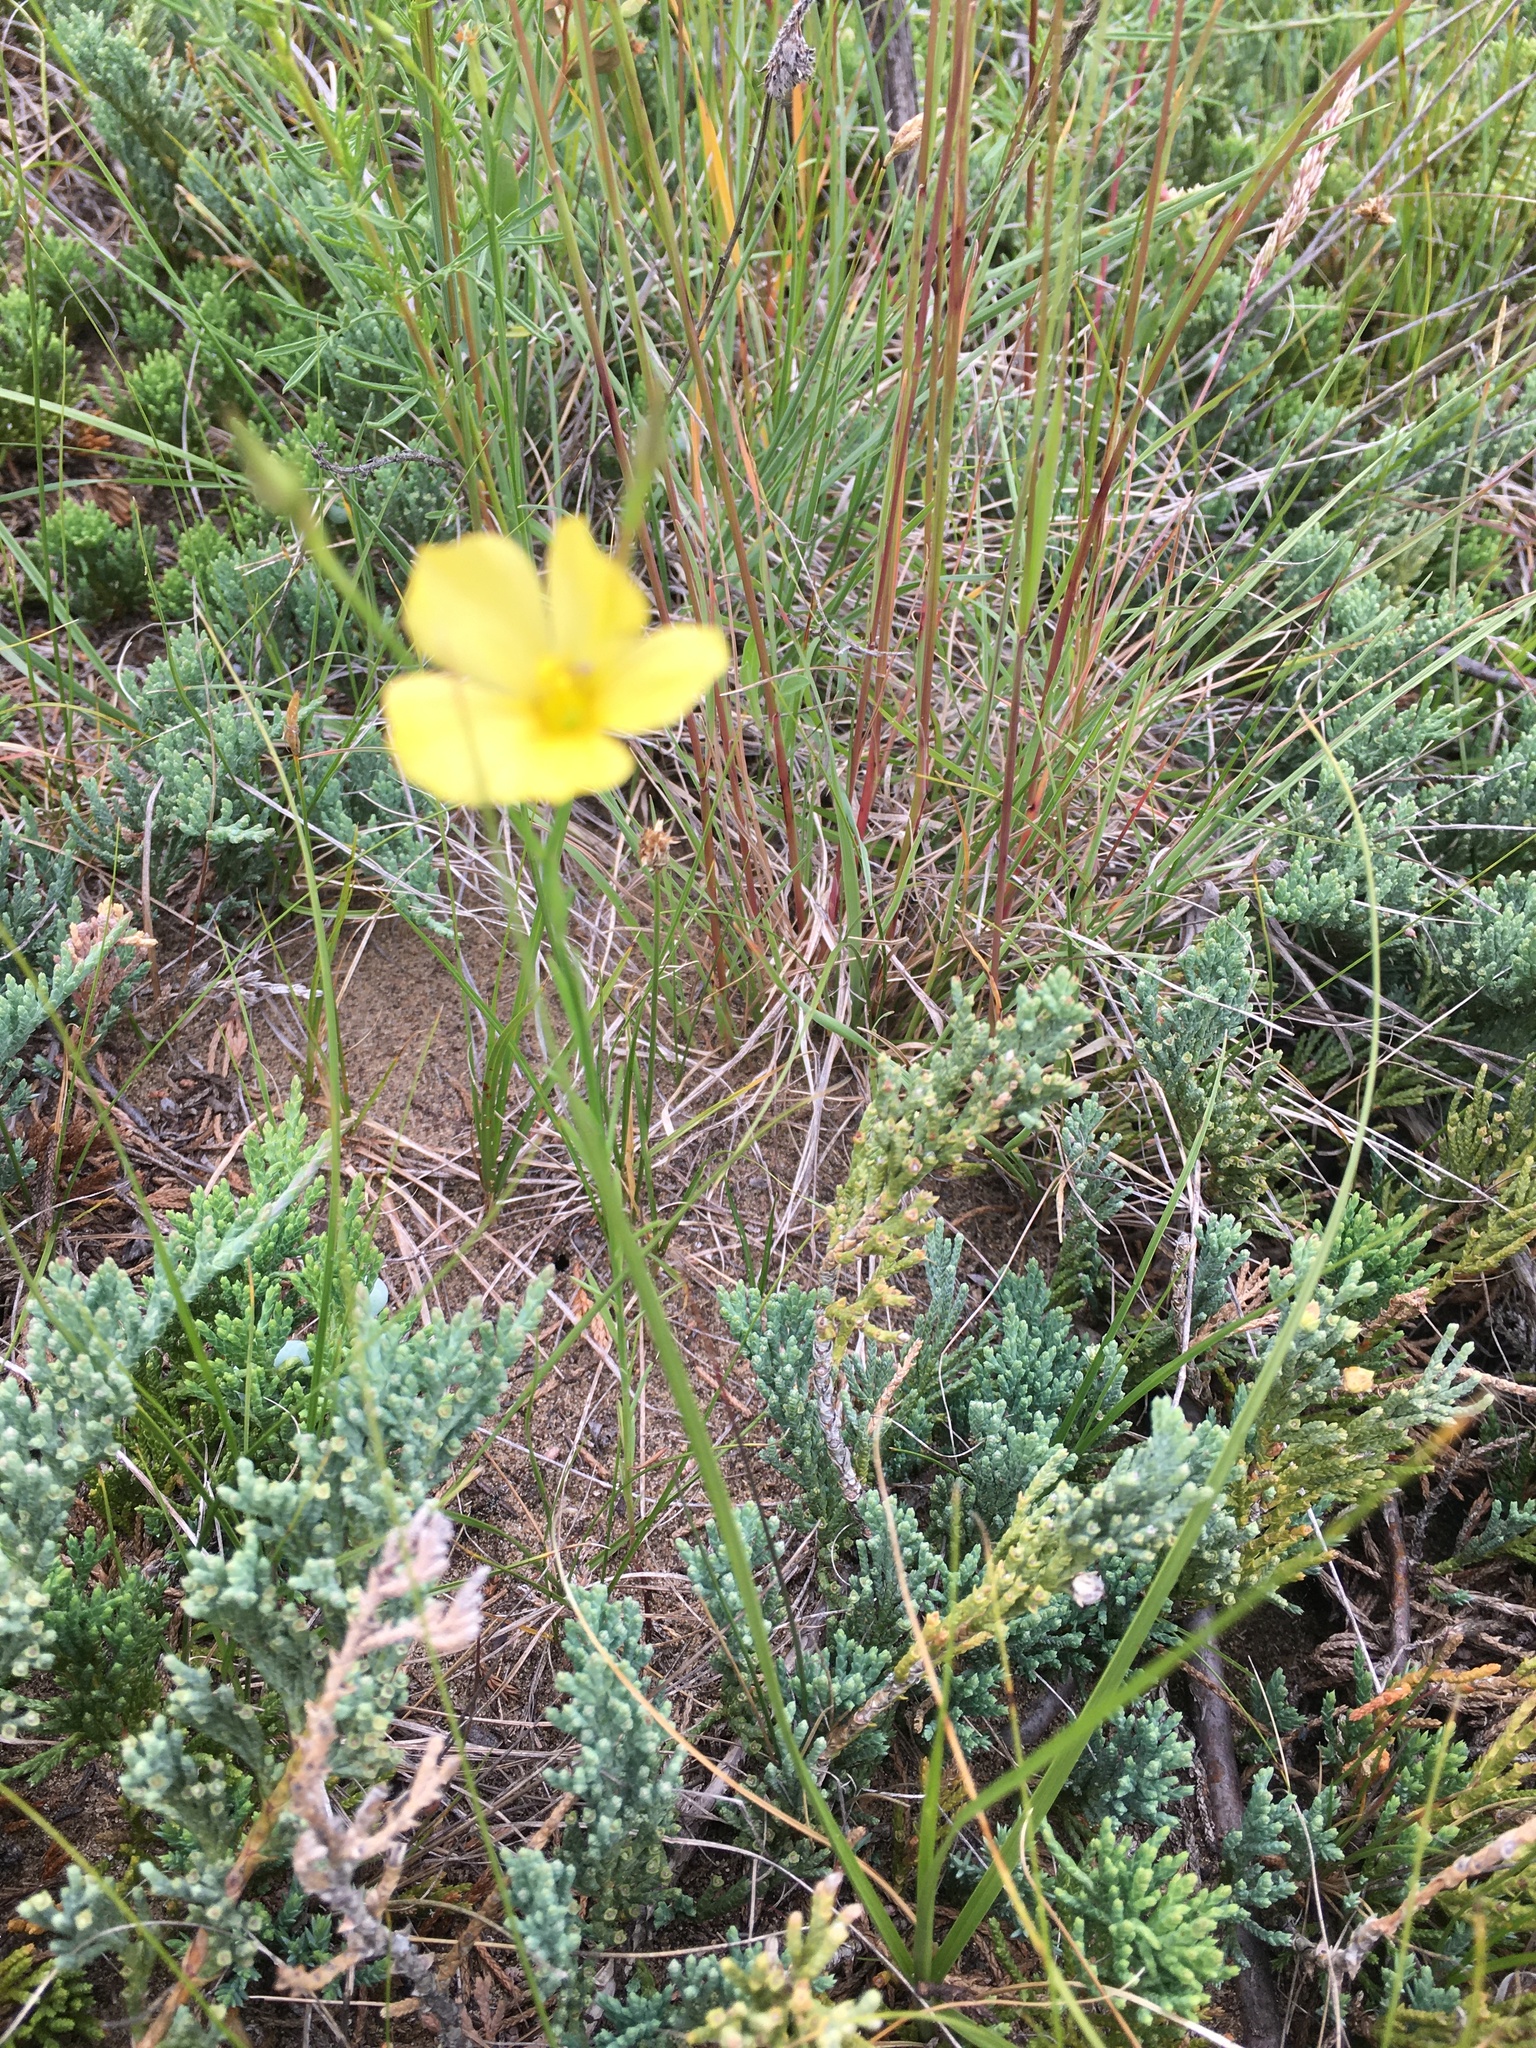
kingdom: Plantae
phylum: Tracheophyta
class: Magnoliopsida
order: Malpighiales
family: Linaceae
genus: Linum
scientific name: Linum rigidum
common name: Stiff-stem flax
